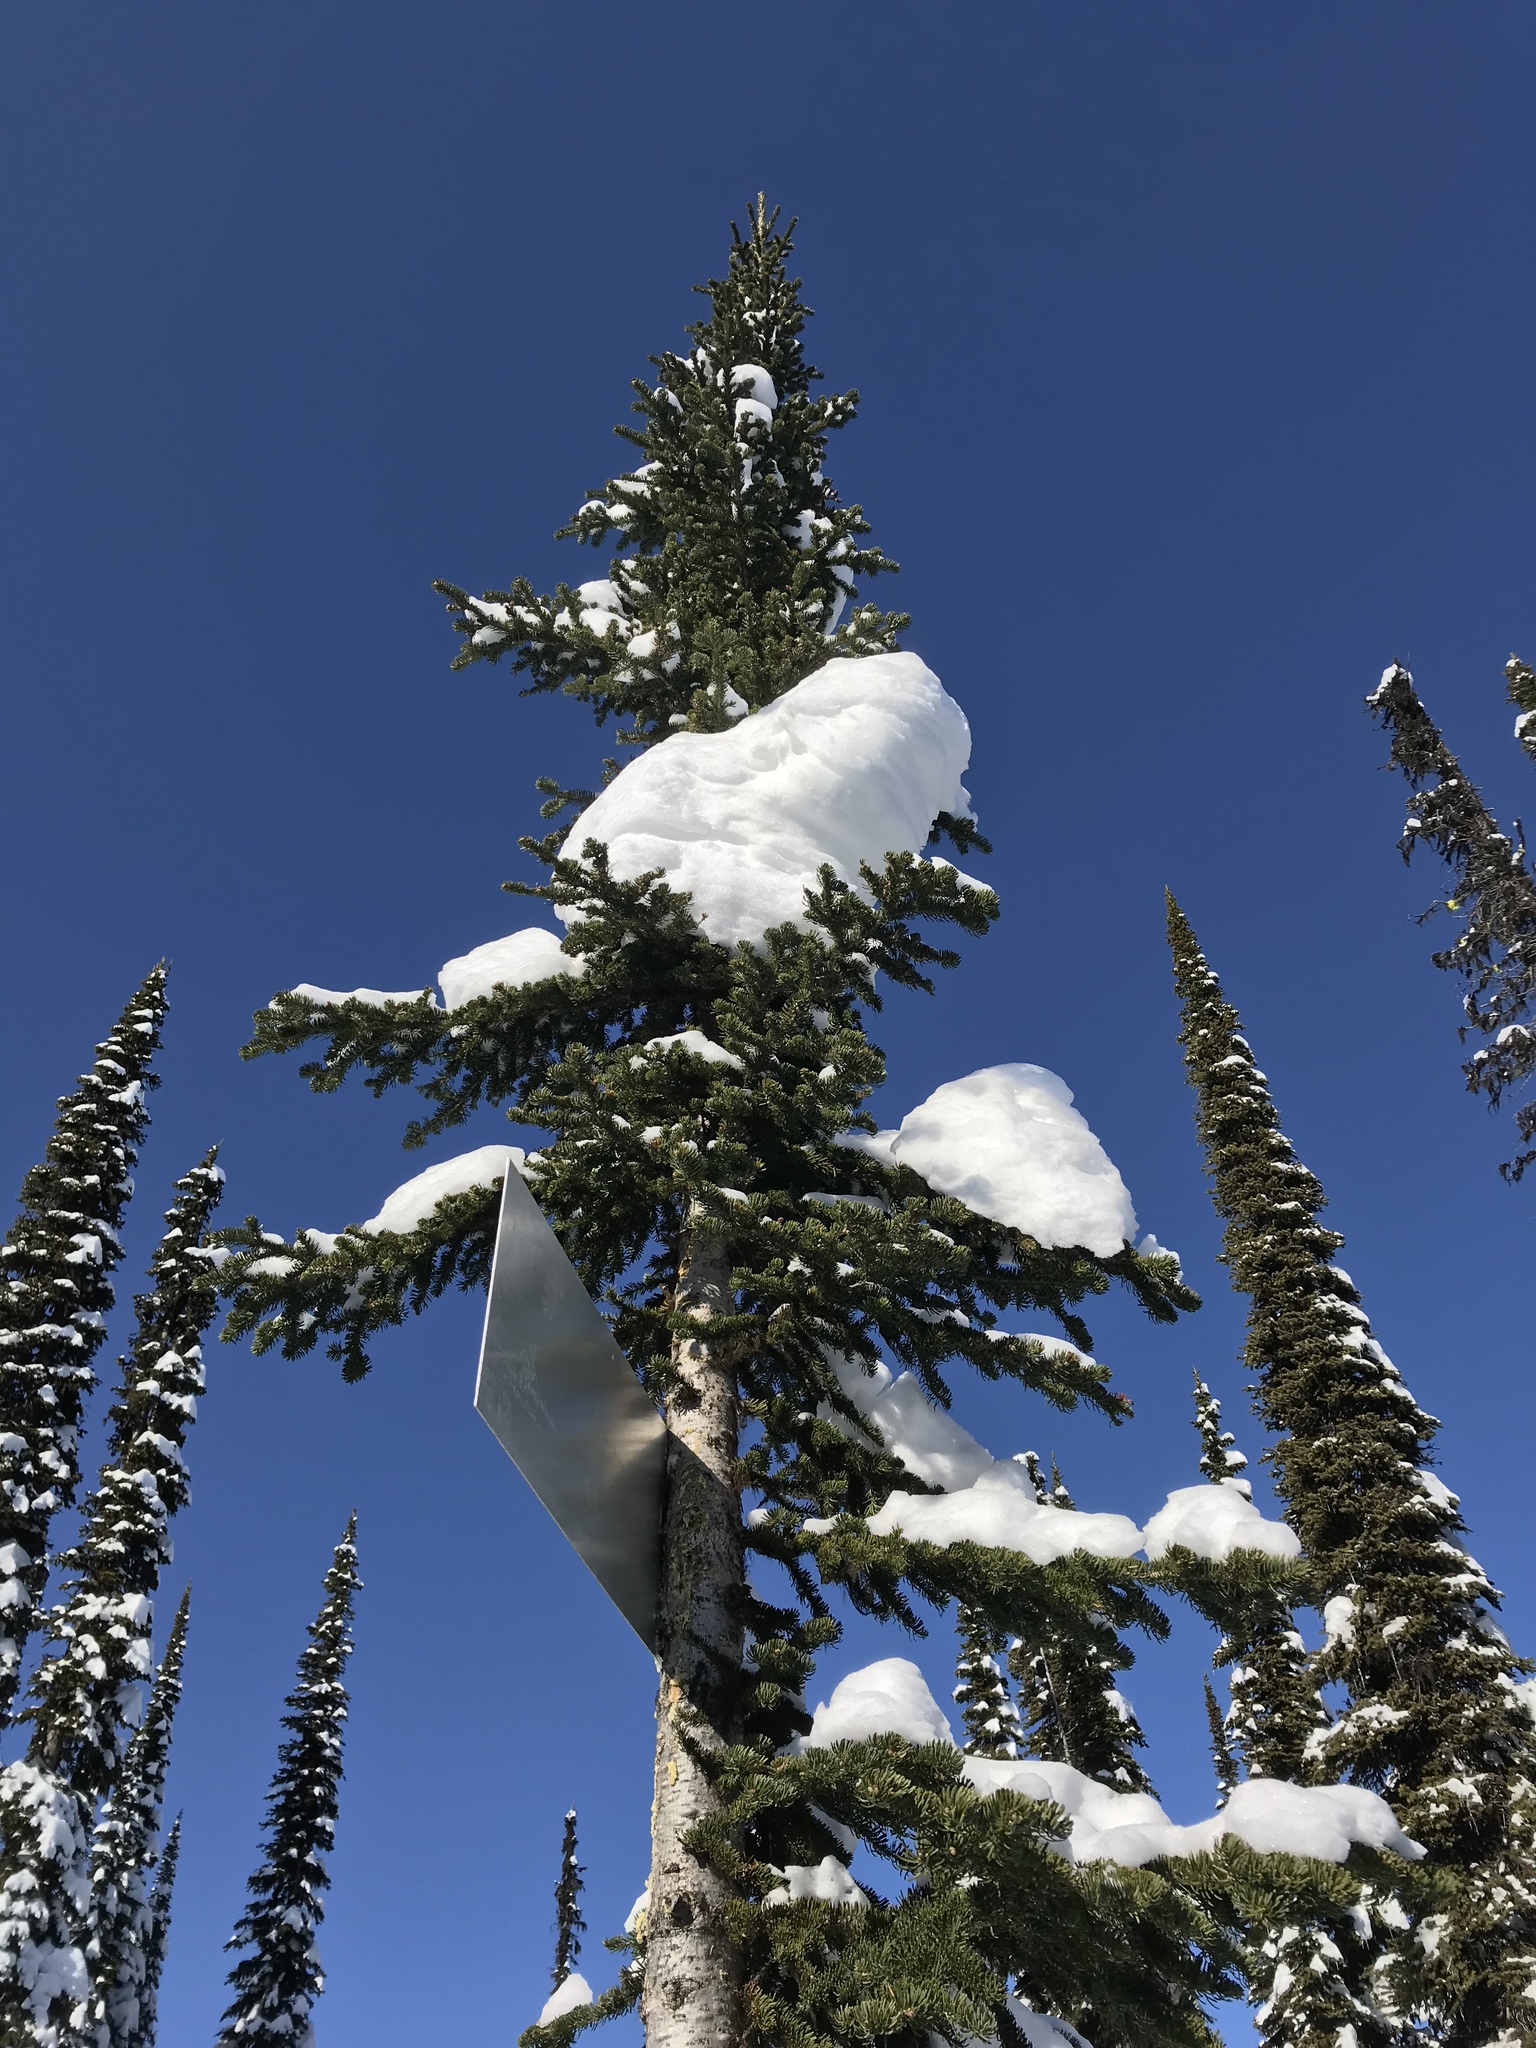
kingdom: Plantae
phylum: Tracheophyta
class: Pinopsida
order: Pinales
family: Pinaceae
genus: Abies
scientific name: Abies lasiocarpa
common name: Subalpine fir
